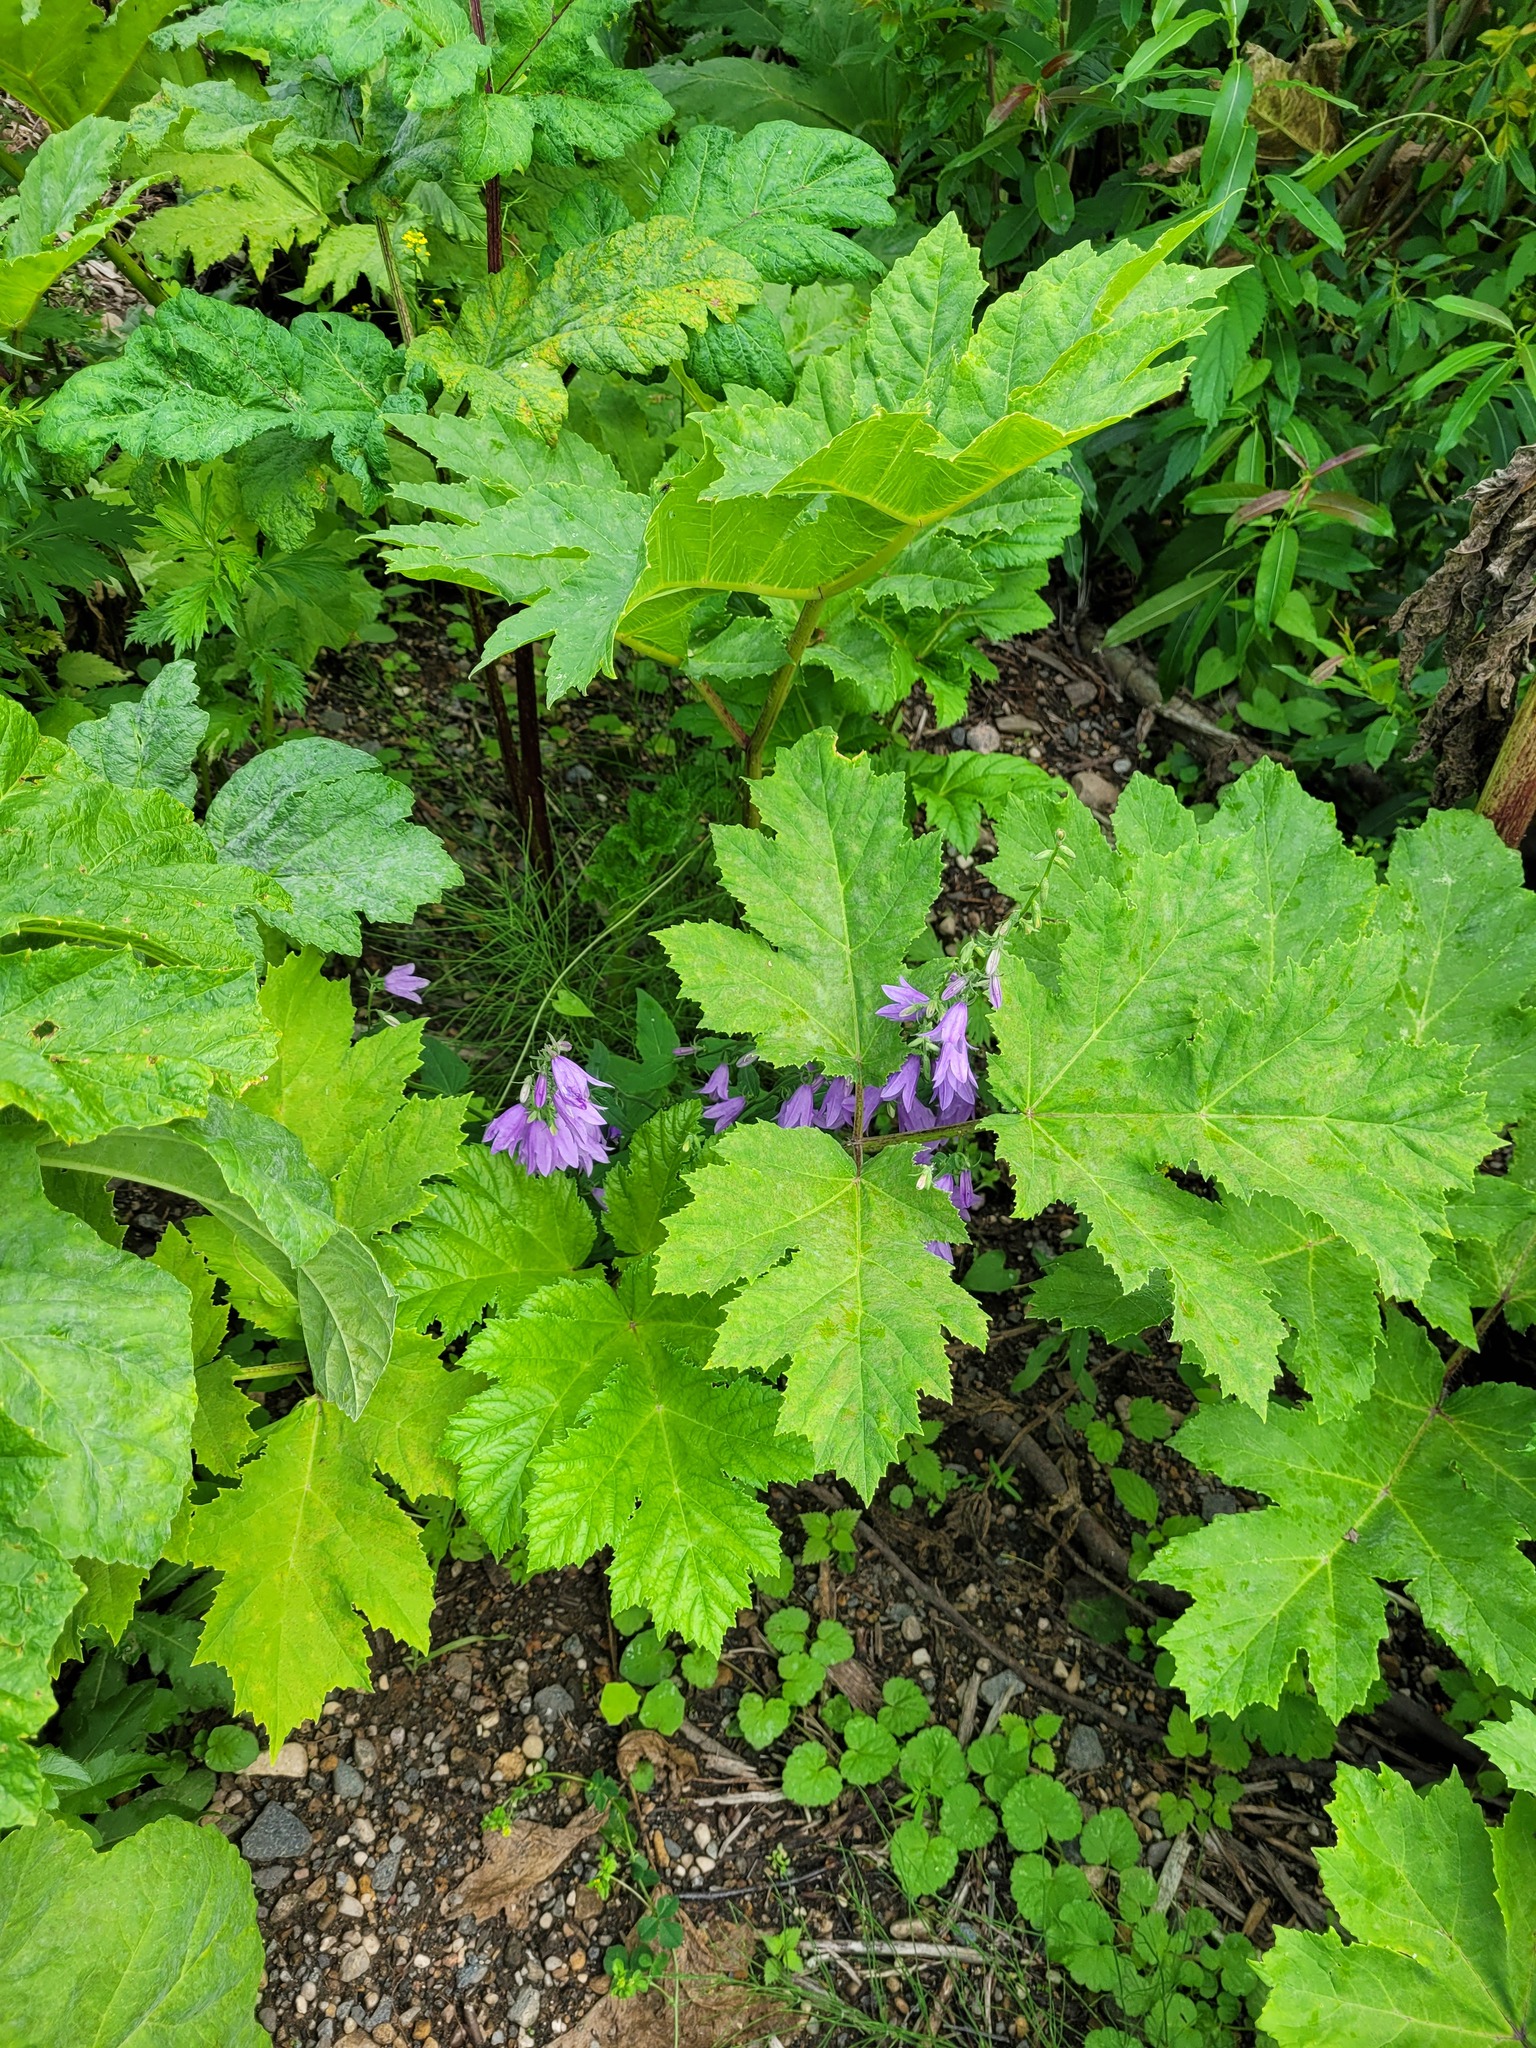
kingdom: Plantae
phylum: Tracheophyta
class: Magnoliopsida
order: Asterales
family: Campanulaceae
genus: Campanula
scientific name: Campanula rapunculoides
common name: Creeping bellflower
